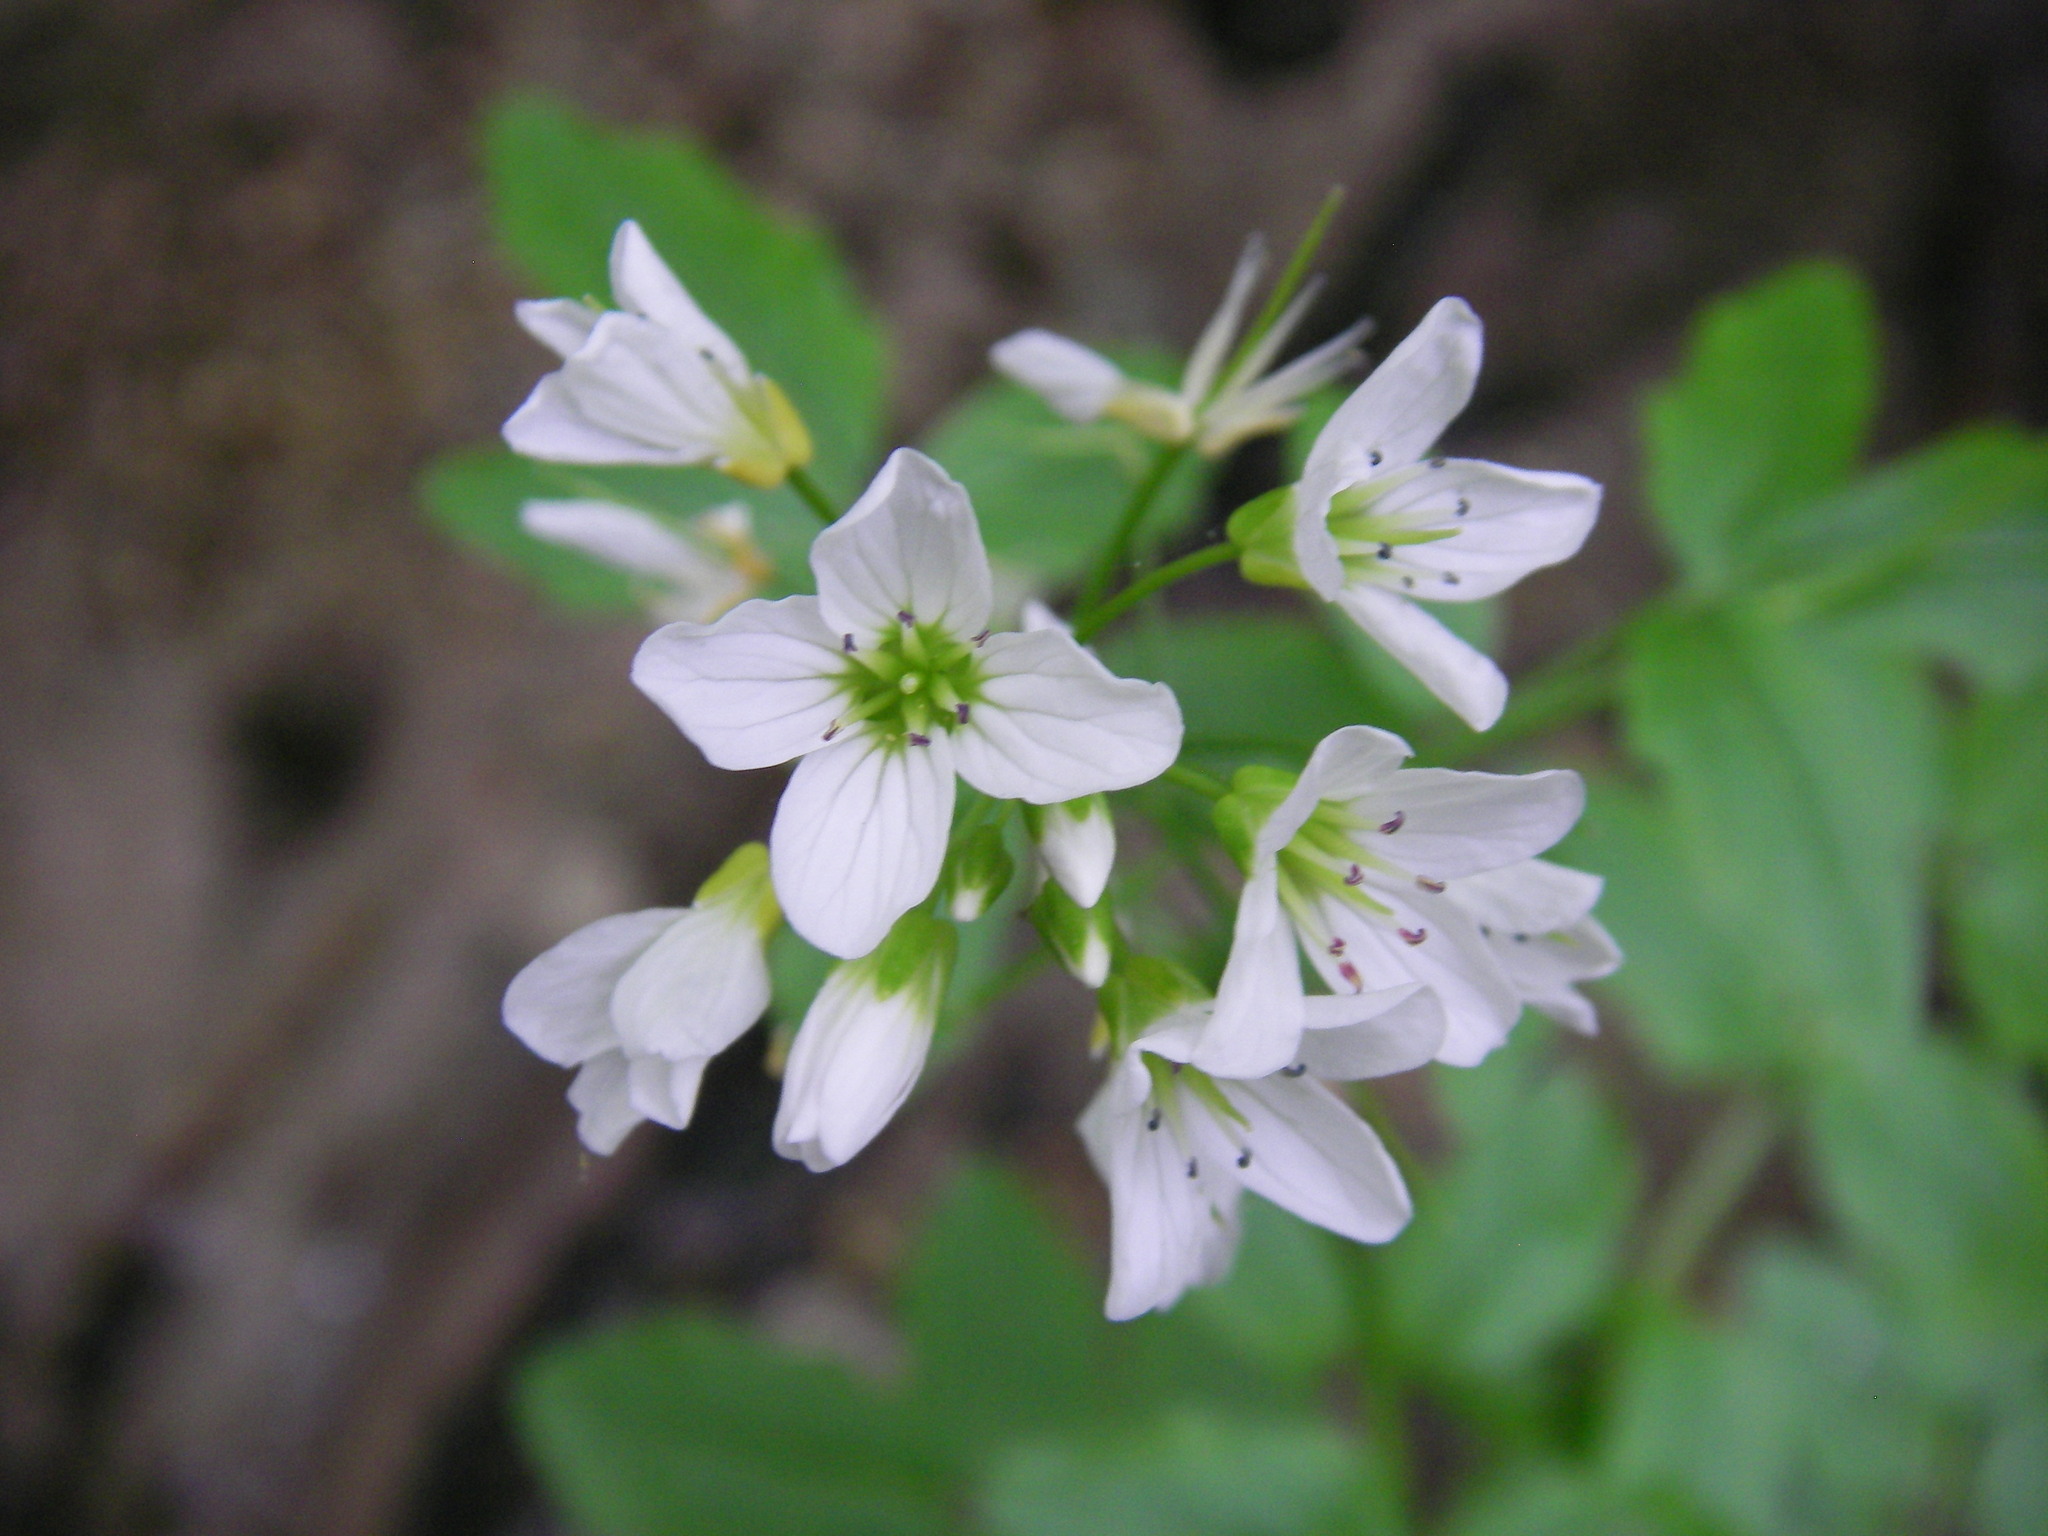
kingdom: Plantae
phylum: Tracheophyta
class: Magnoliopsida
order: Brassicales
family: Brassicaceae
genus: Cardamine
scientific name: Cardamine amara
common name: Large bitter-cress
